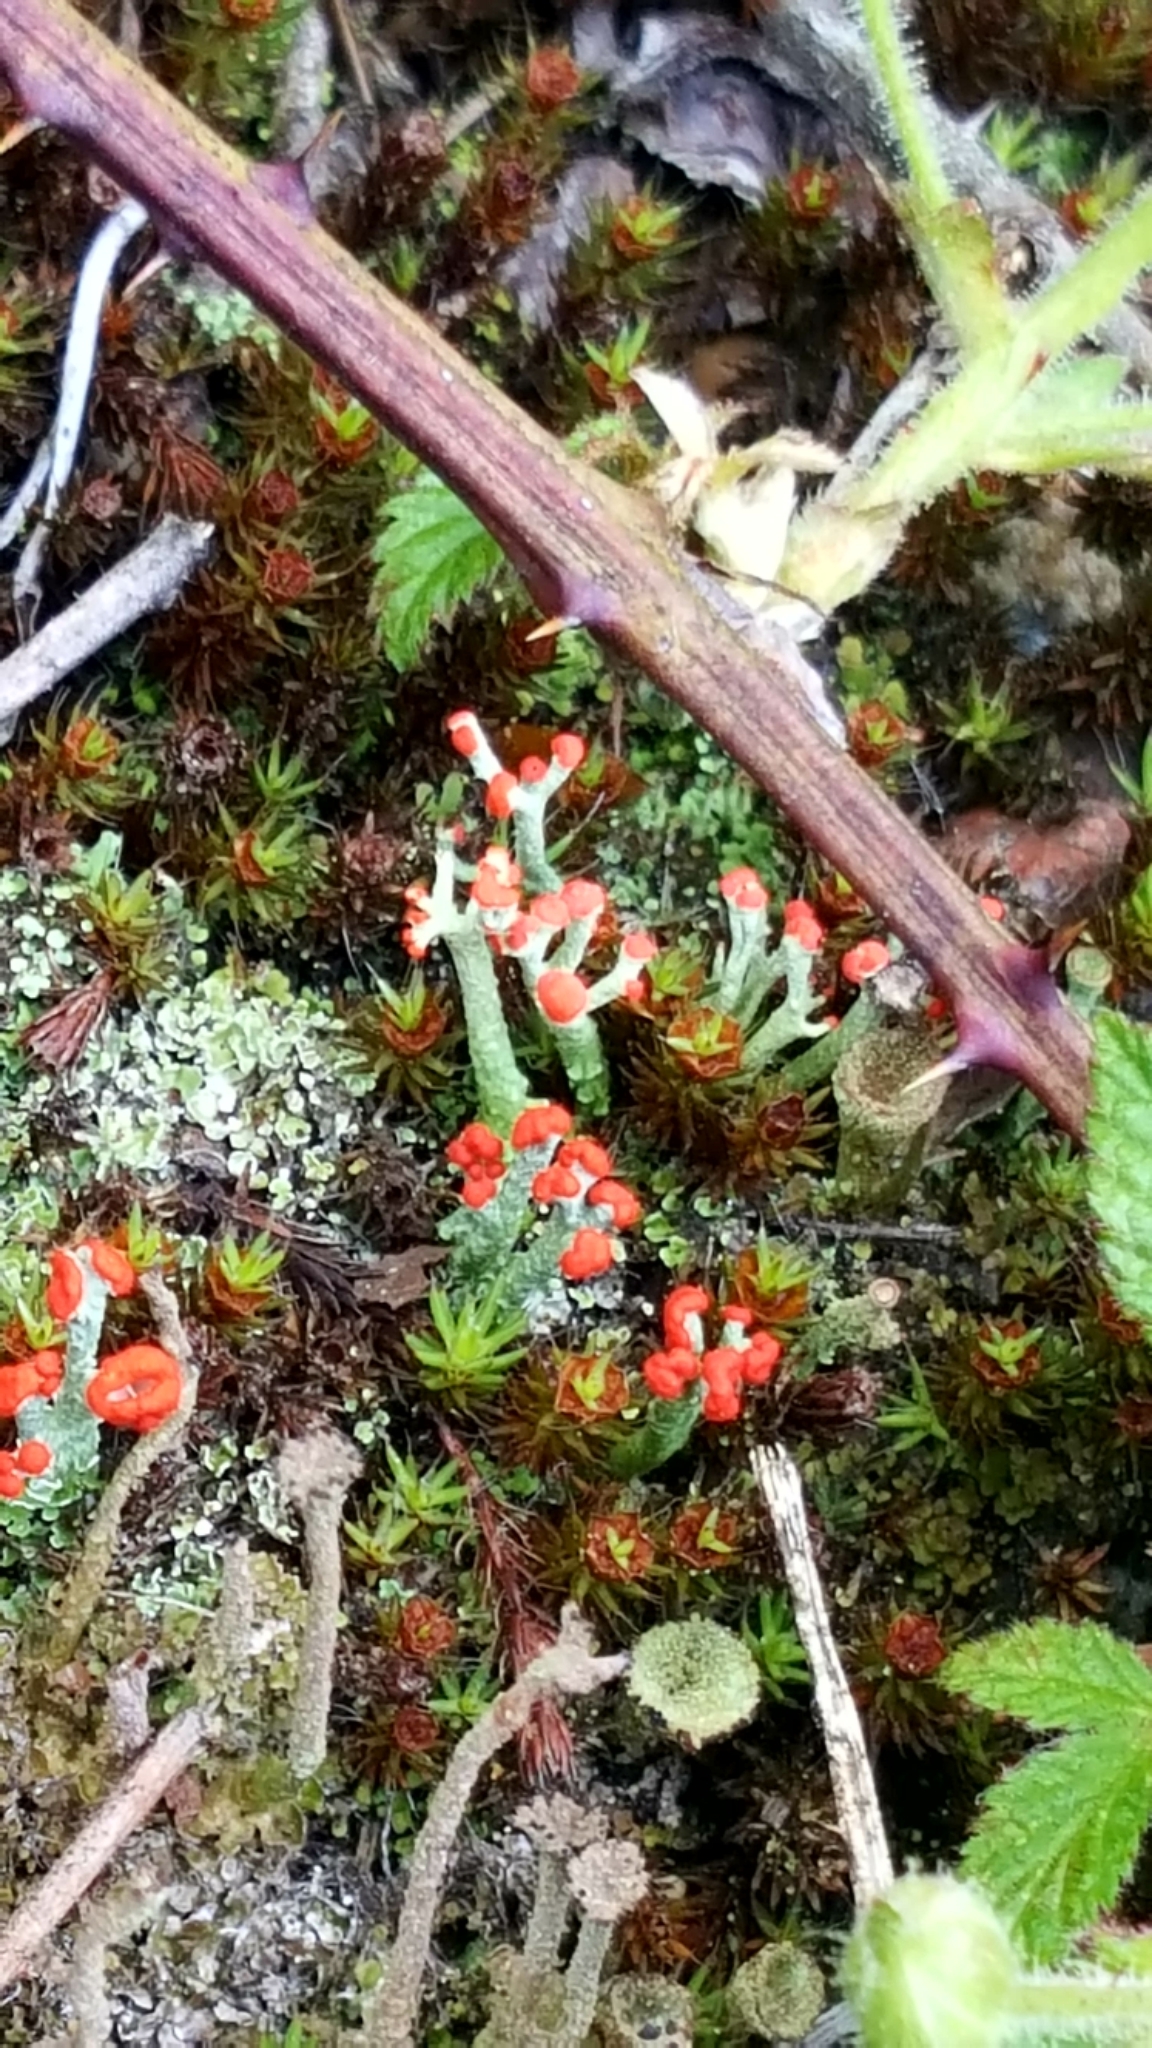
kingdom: Fungi
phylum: Ascomycota
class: Lecanoromycetes
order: Lecanorales
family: Cladoniaceae
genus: Cladonia
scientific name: Cladonia cristatella
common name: British soldier lichen
